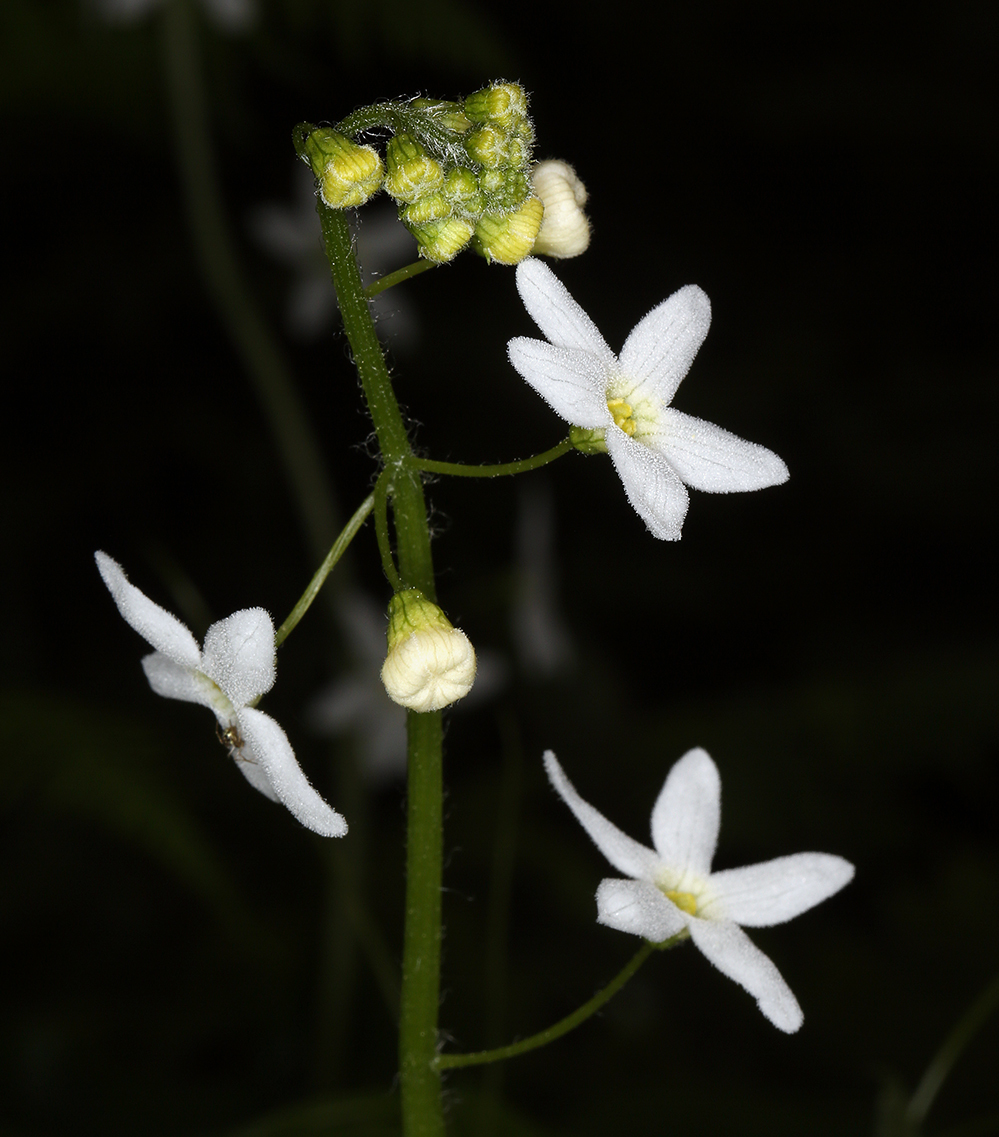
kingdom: Plantae
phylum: Tracheophyta
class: Magnoliopsida
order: Cucurbitales
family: Cucurbitaceae
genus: Marah
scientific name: Marah oregana
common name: Coastal manroot
